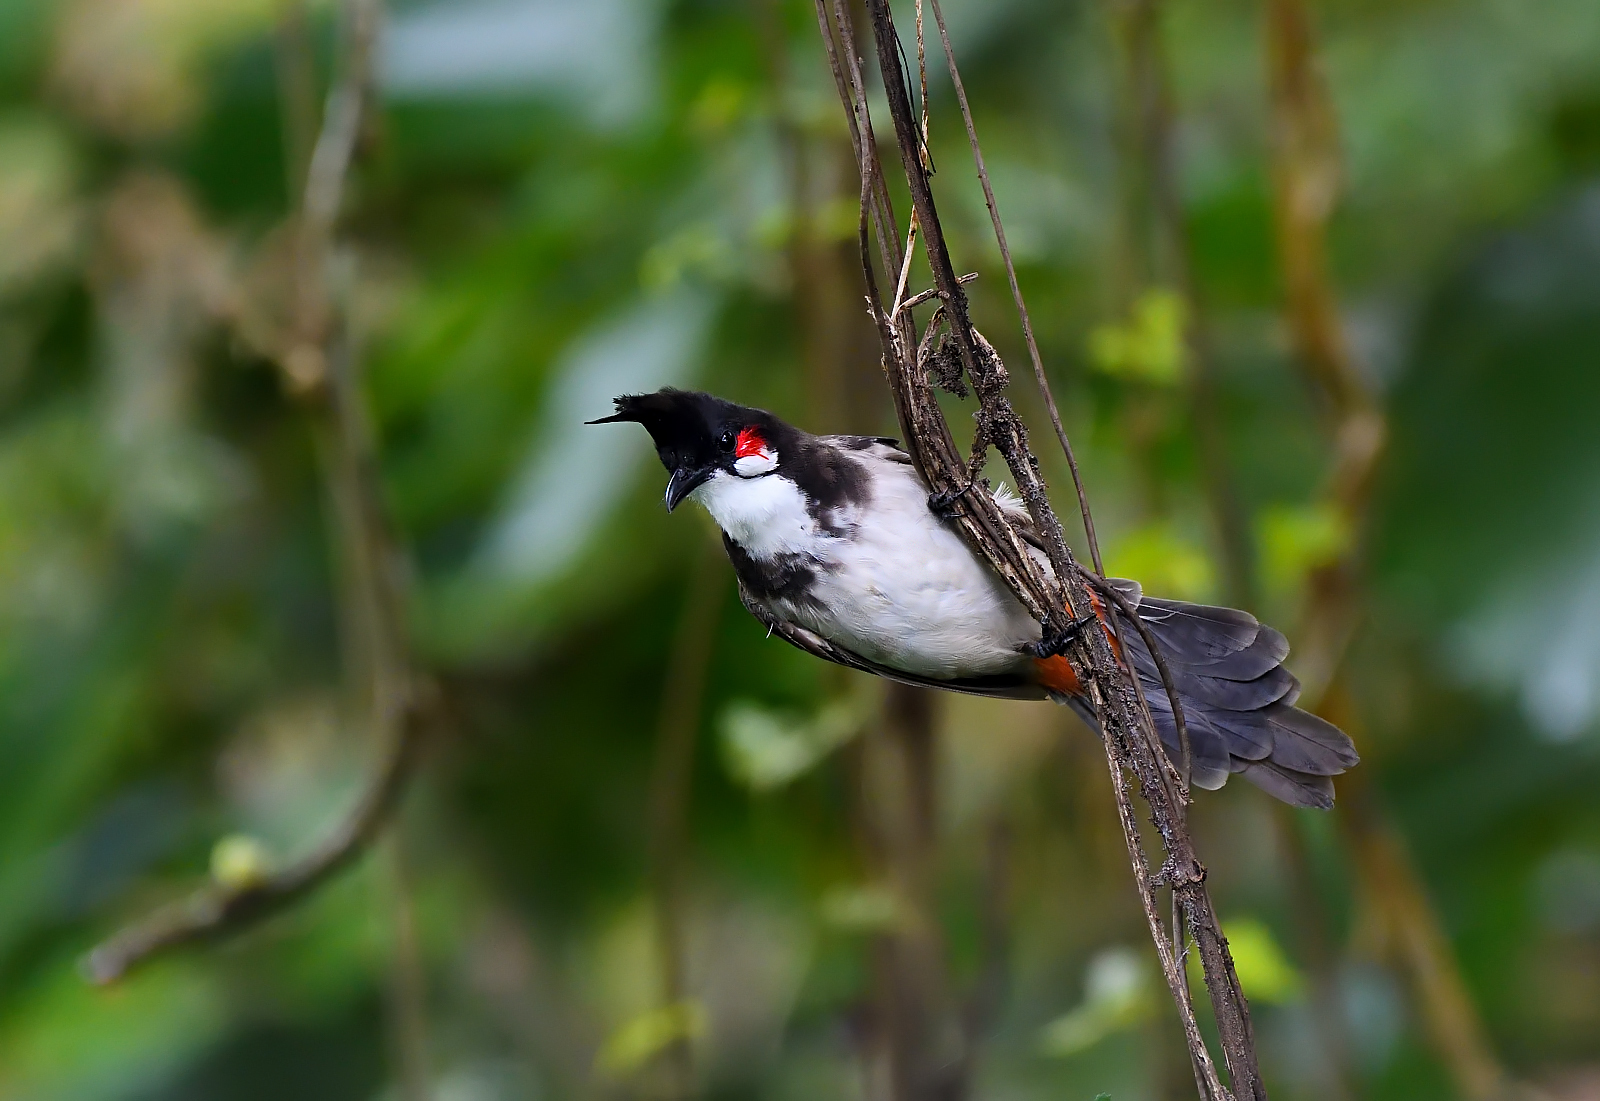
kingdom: Animalia
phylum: Chordata
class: Aves
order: Passeriformes
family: Pycnonotidae
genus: Pycnonotus
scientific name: Pycnonotus jocosus
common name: Red-whiskered bulbul
